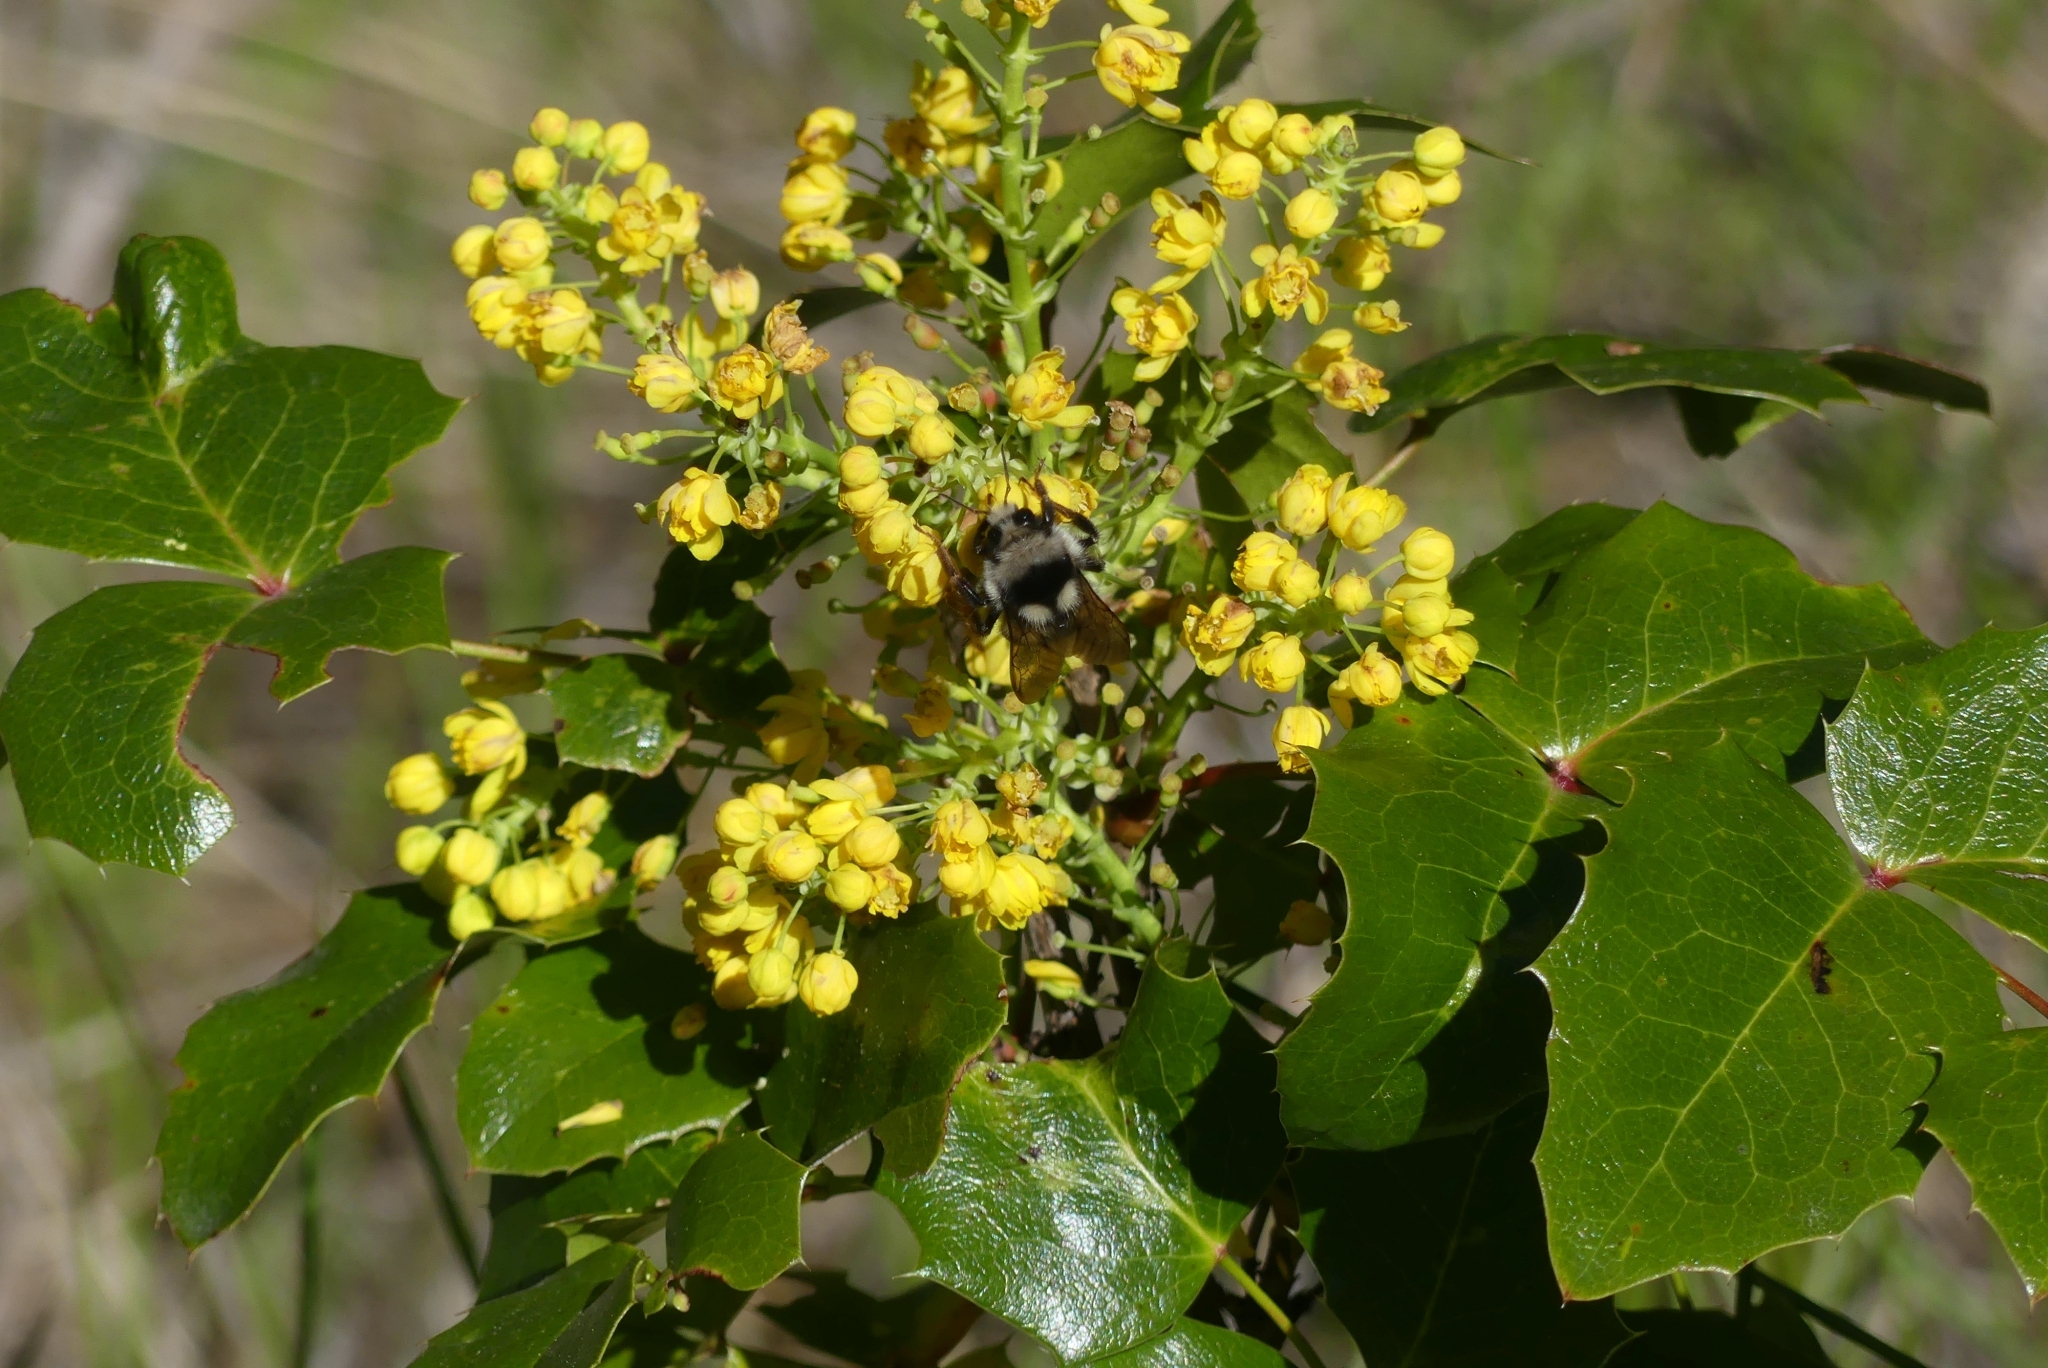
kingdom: Animalia
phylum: Arthropoda
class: Insecta
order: Hymenoptera
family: Apidae
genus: Bombus
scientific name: Bombus vancouverensis
